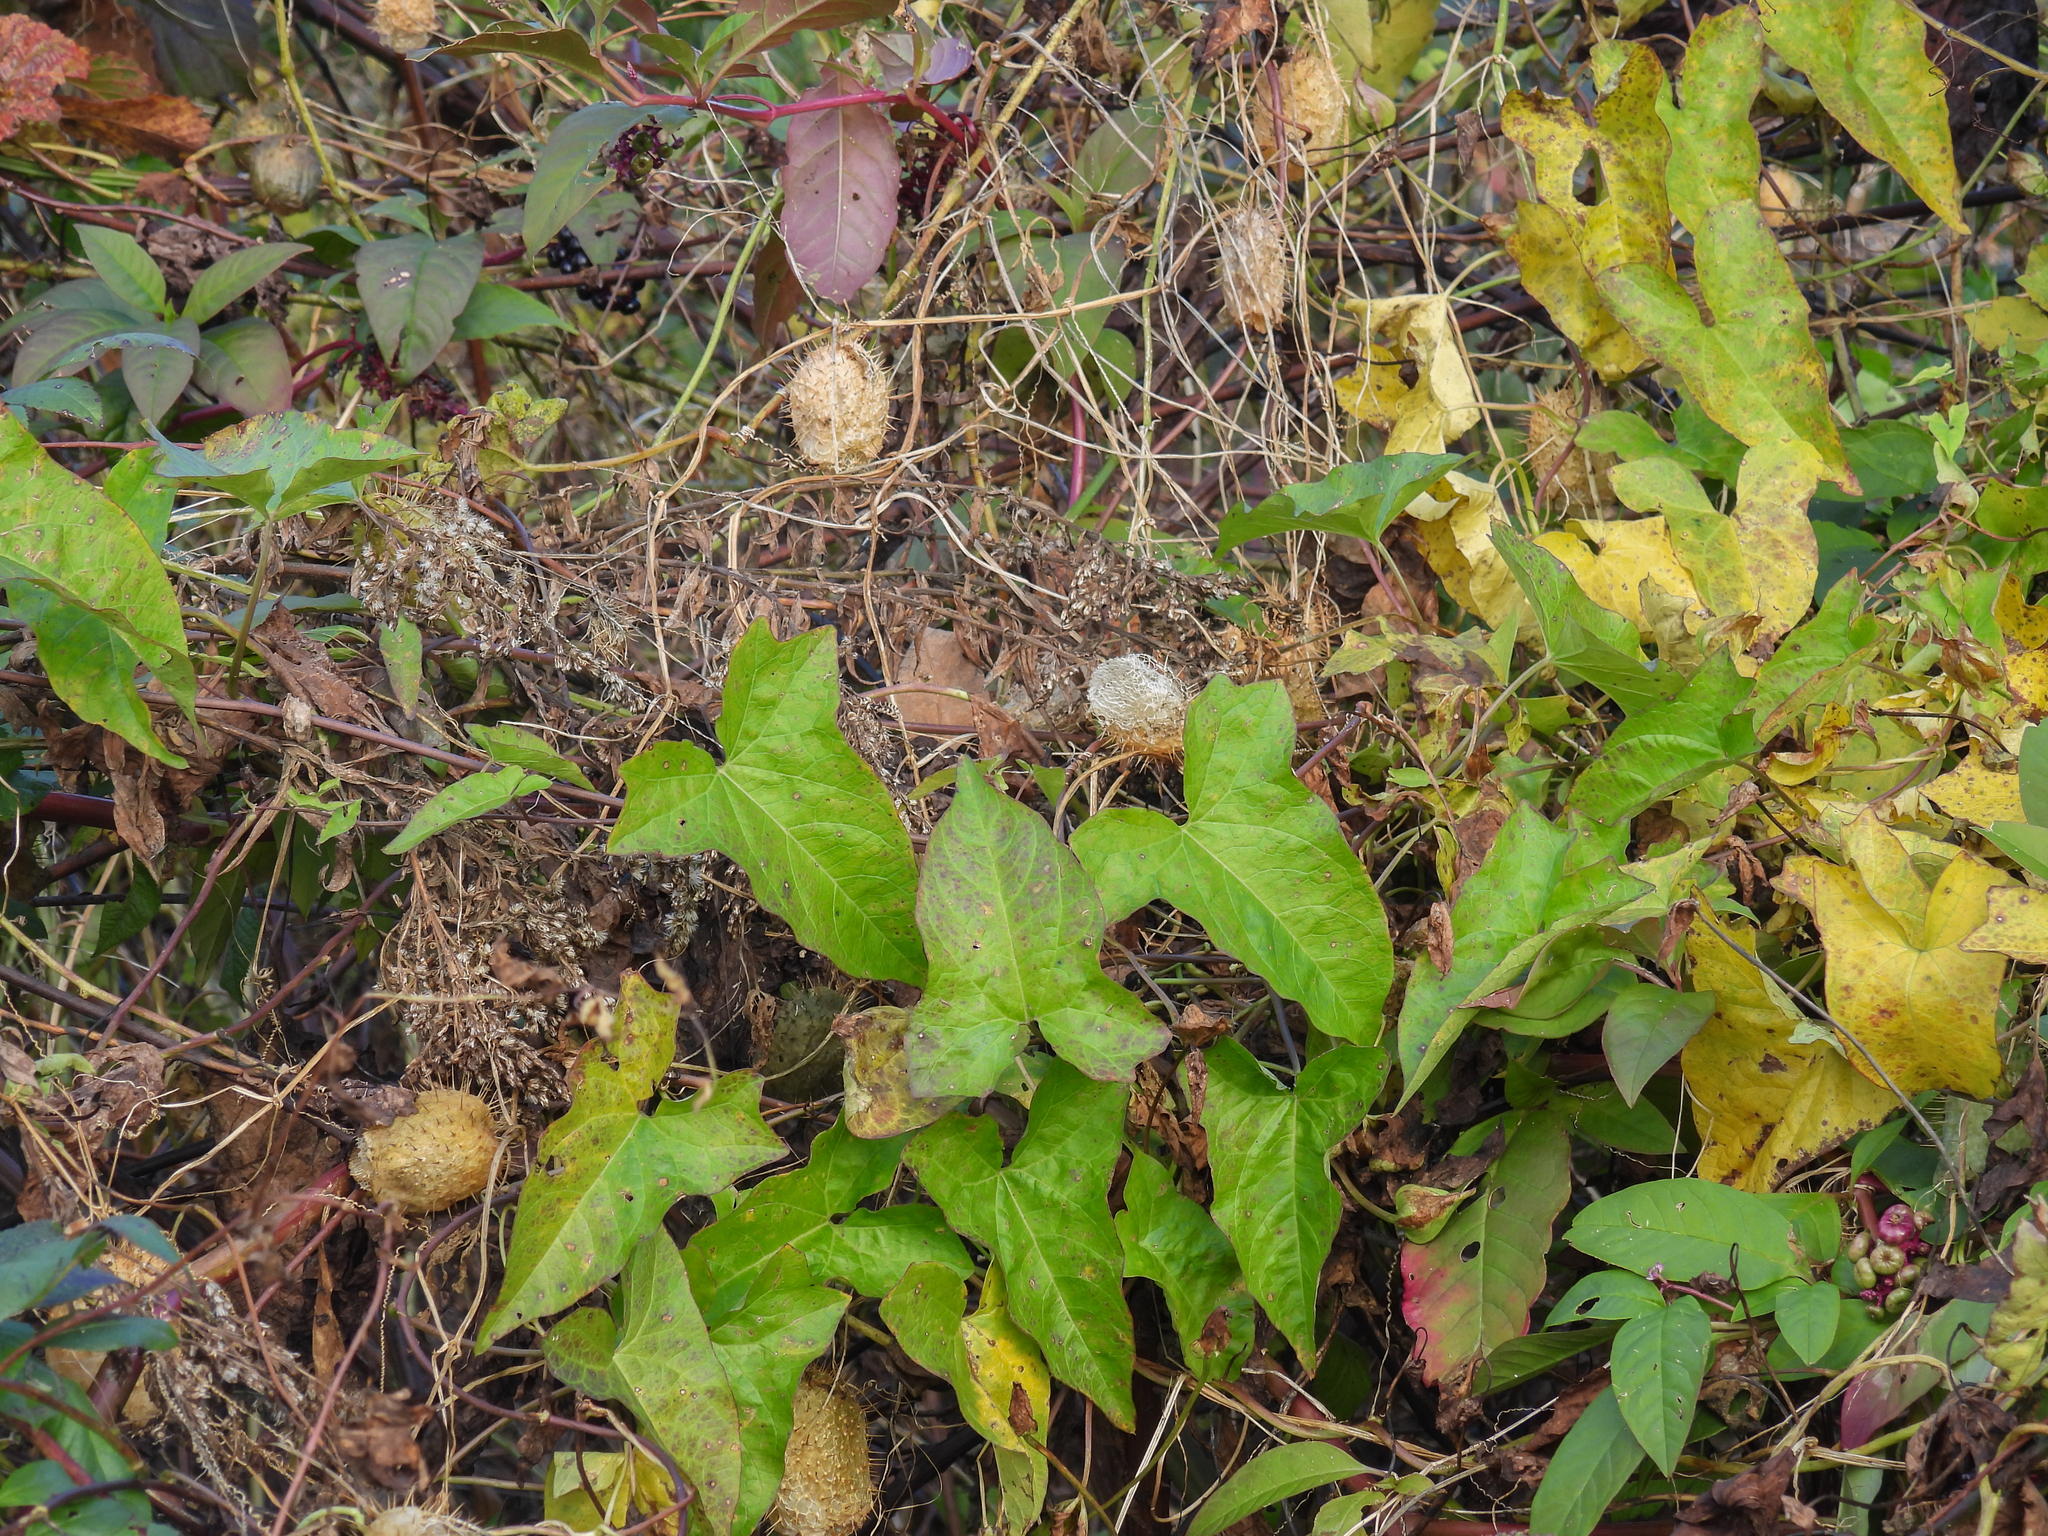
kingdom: Plantae
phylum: Tracheophyta
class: Magnoliopsida
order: Cucurbitales
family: Cucurbitaceae
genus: Echinocystis
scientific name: Echinocystis lobata
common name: Wild cucumber
